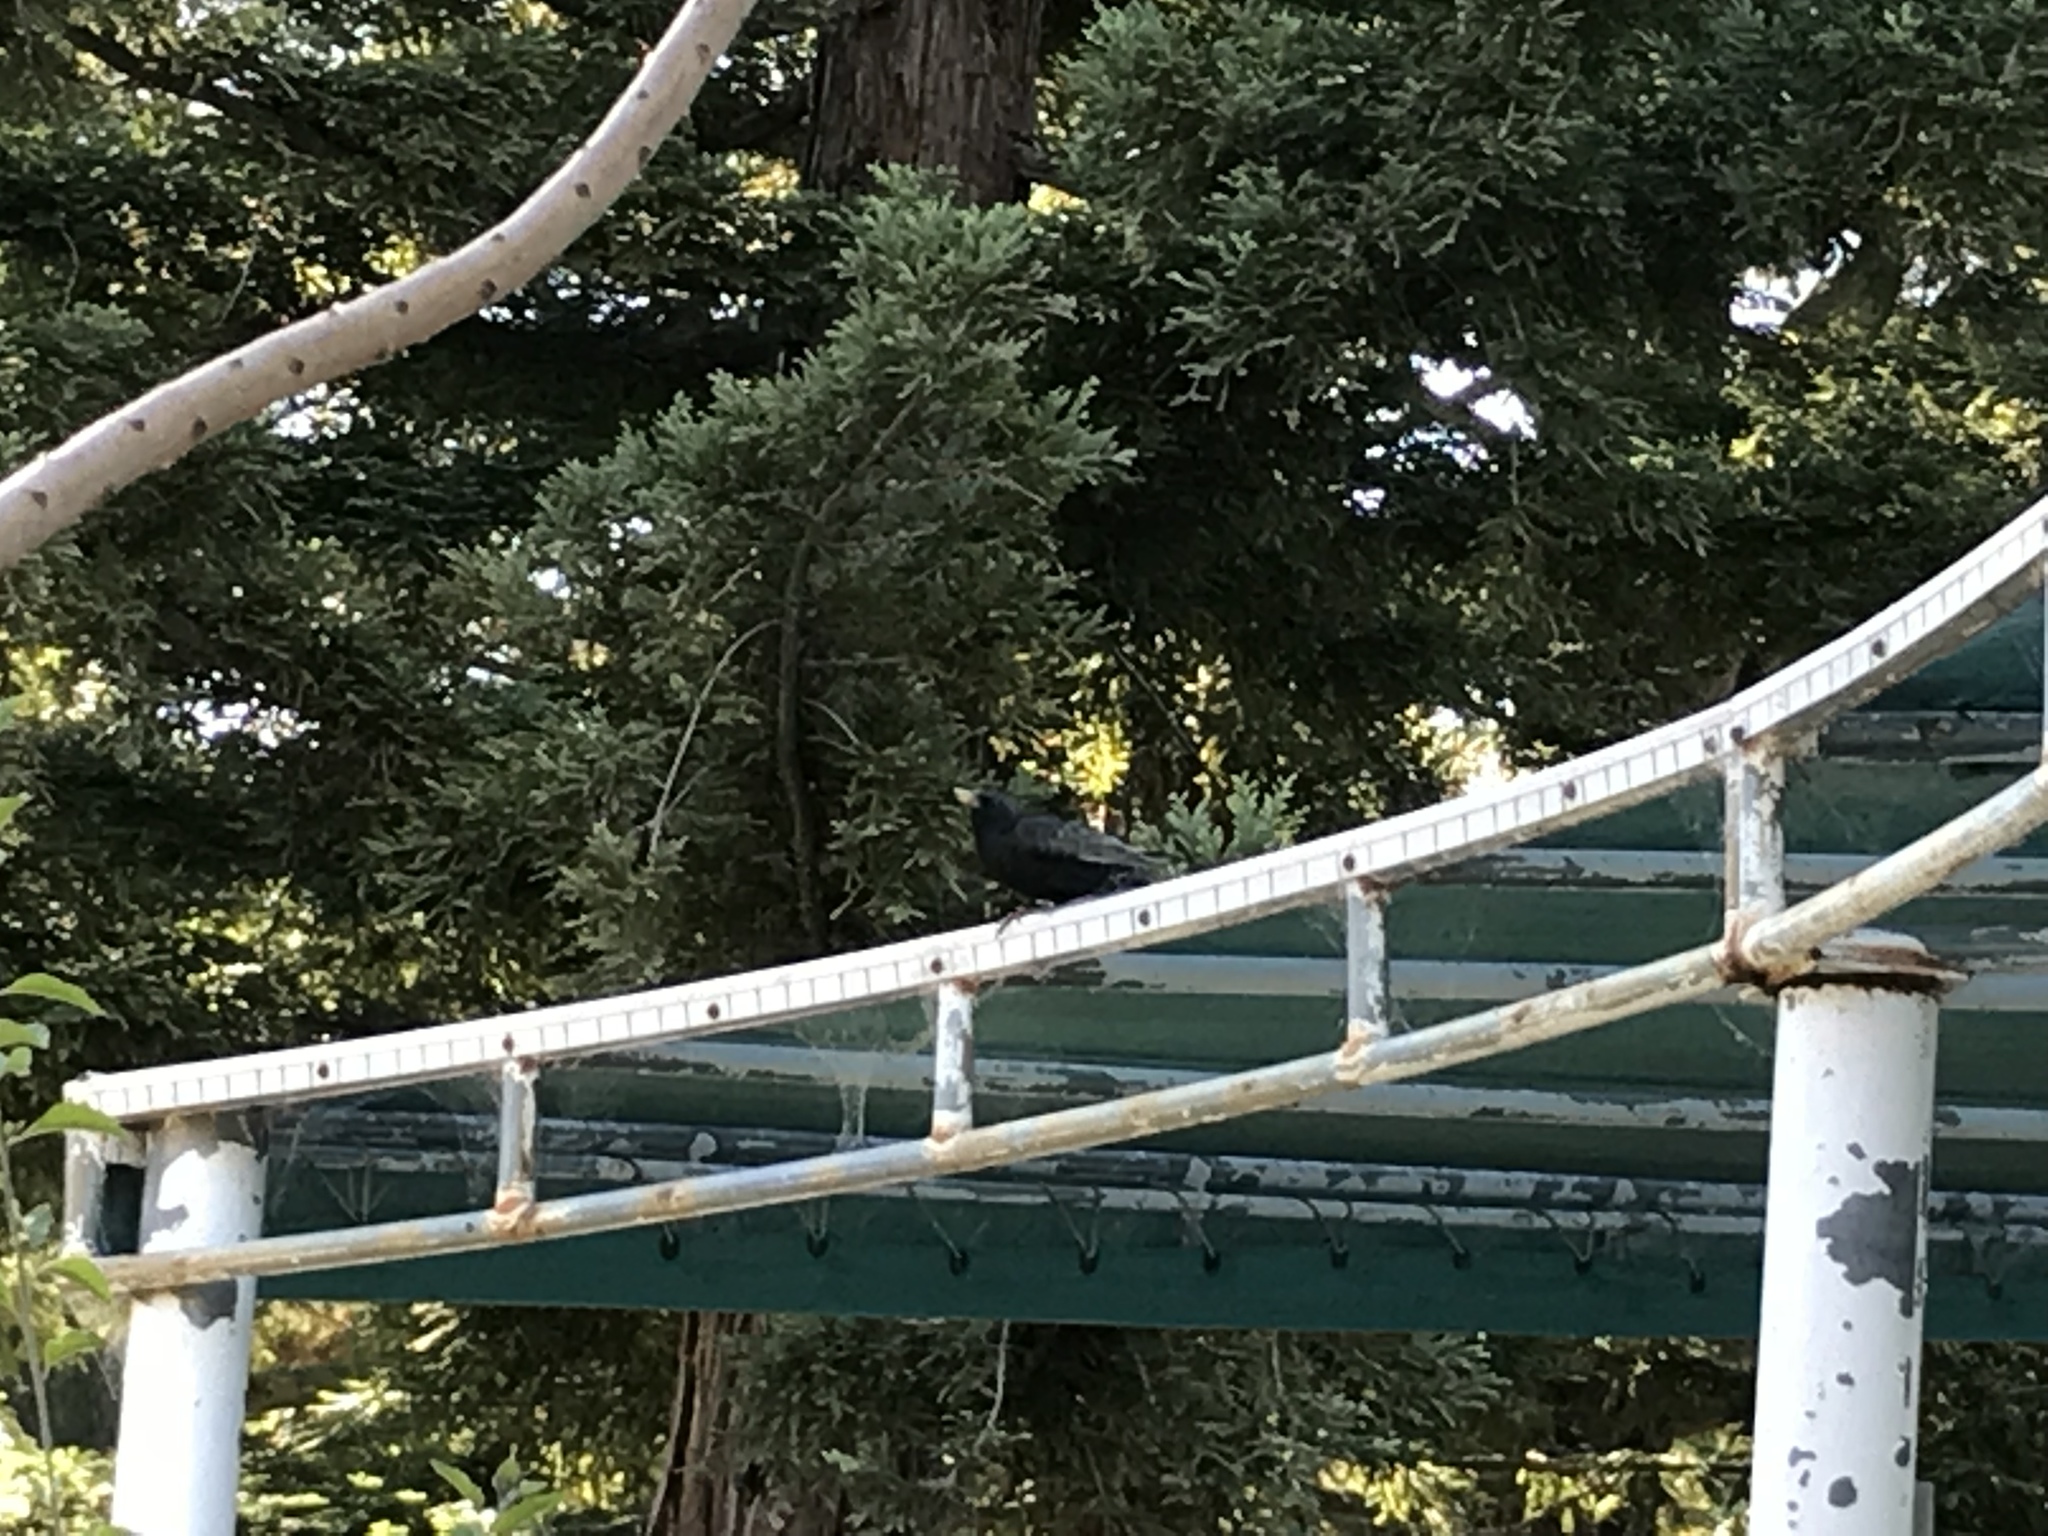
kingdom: Animalia
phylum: Chordata
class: Aves
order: Passeriformes
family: Sturnidae
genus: Sturnus
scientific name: Sturnus vulgaris
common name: Common starling
